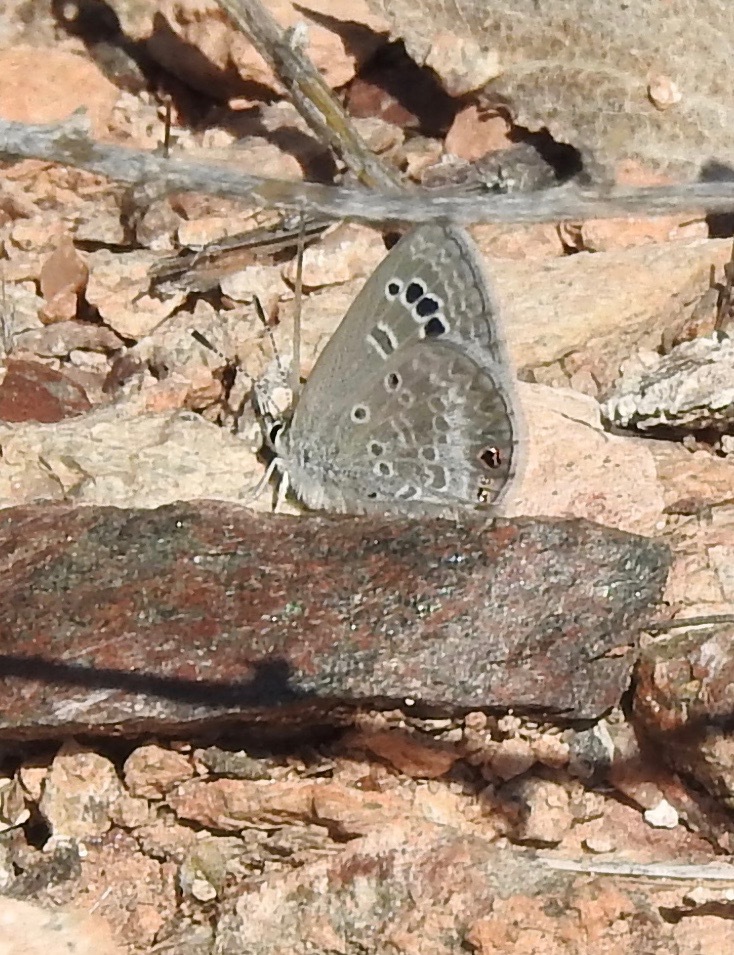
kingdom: Animalia
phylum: Arthropoda
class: Insecta
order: Lepidoptera
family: Lycaenidae
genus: Echinargus
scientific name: Echinargus isola
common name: Reakirt's blue
